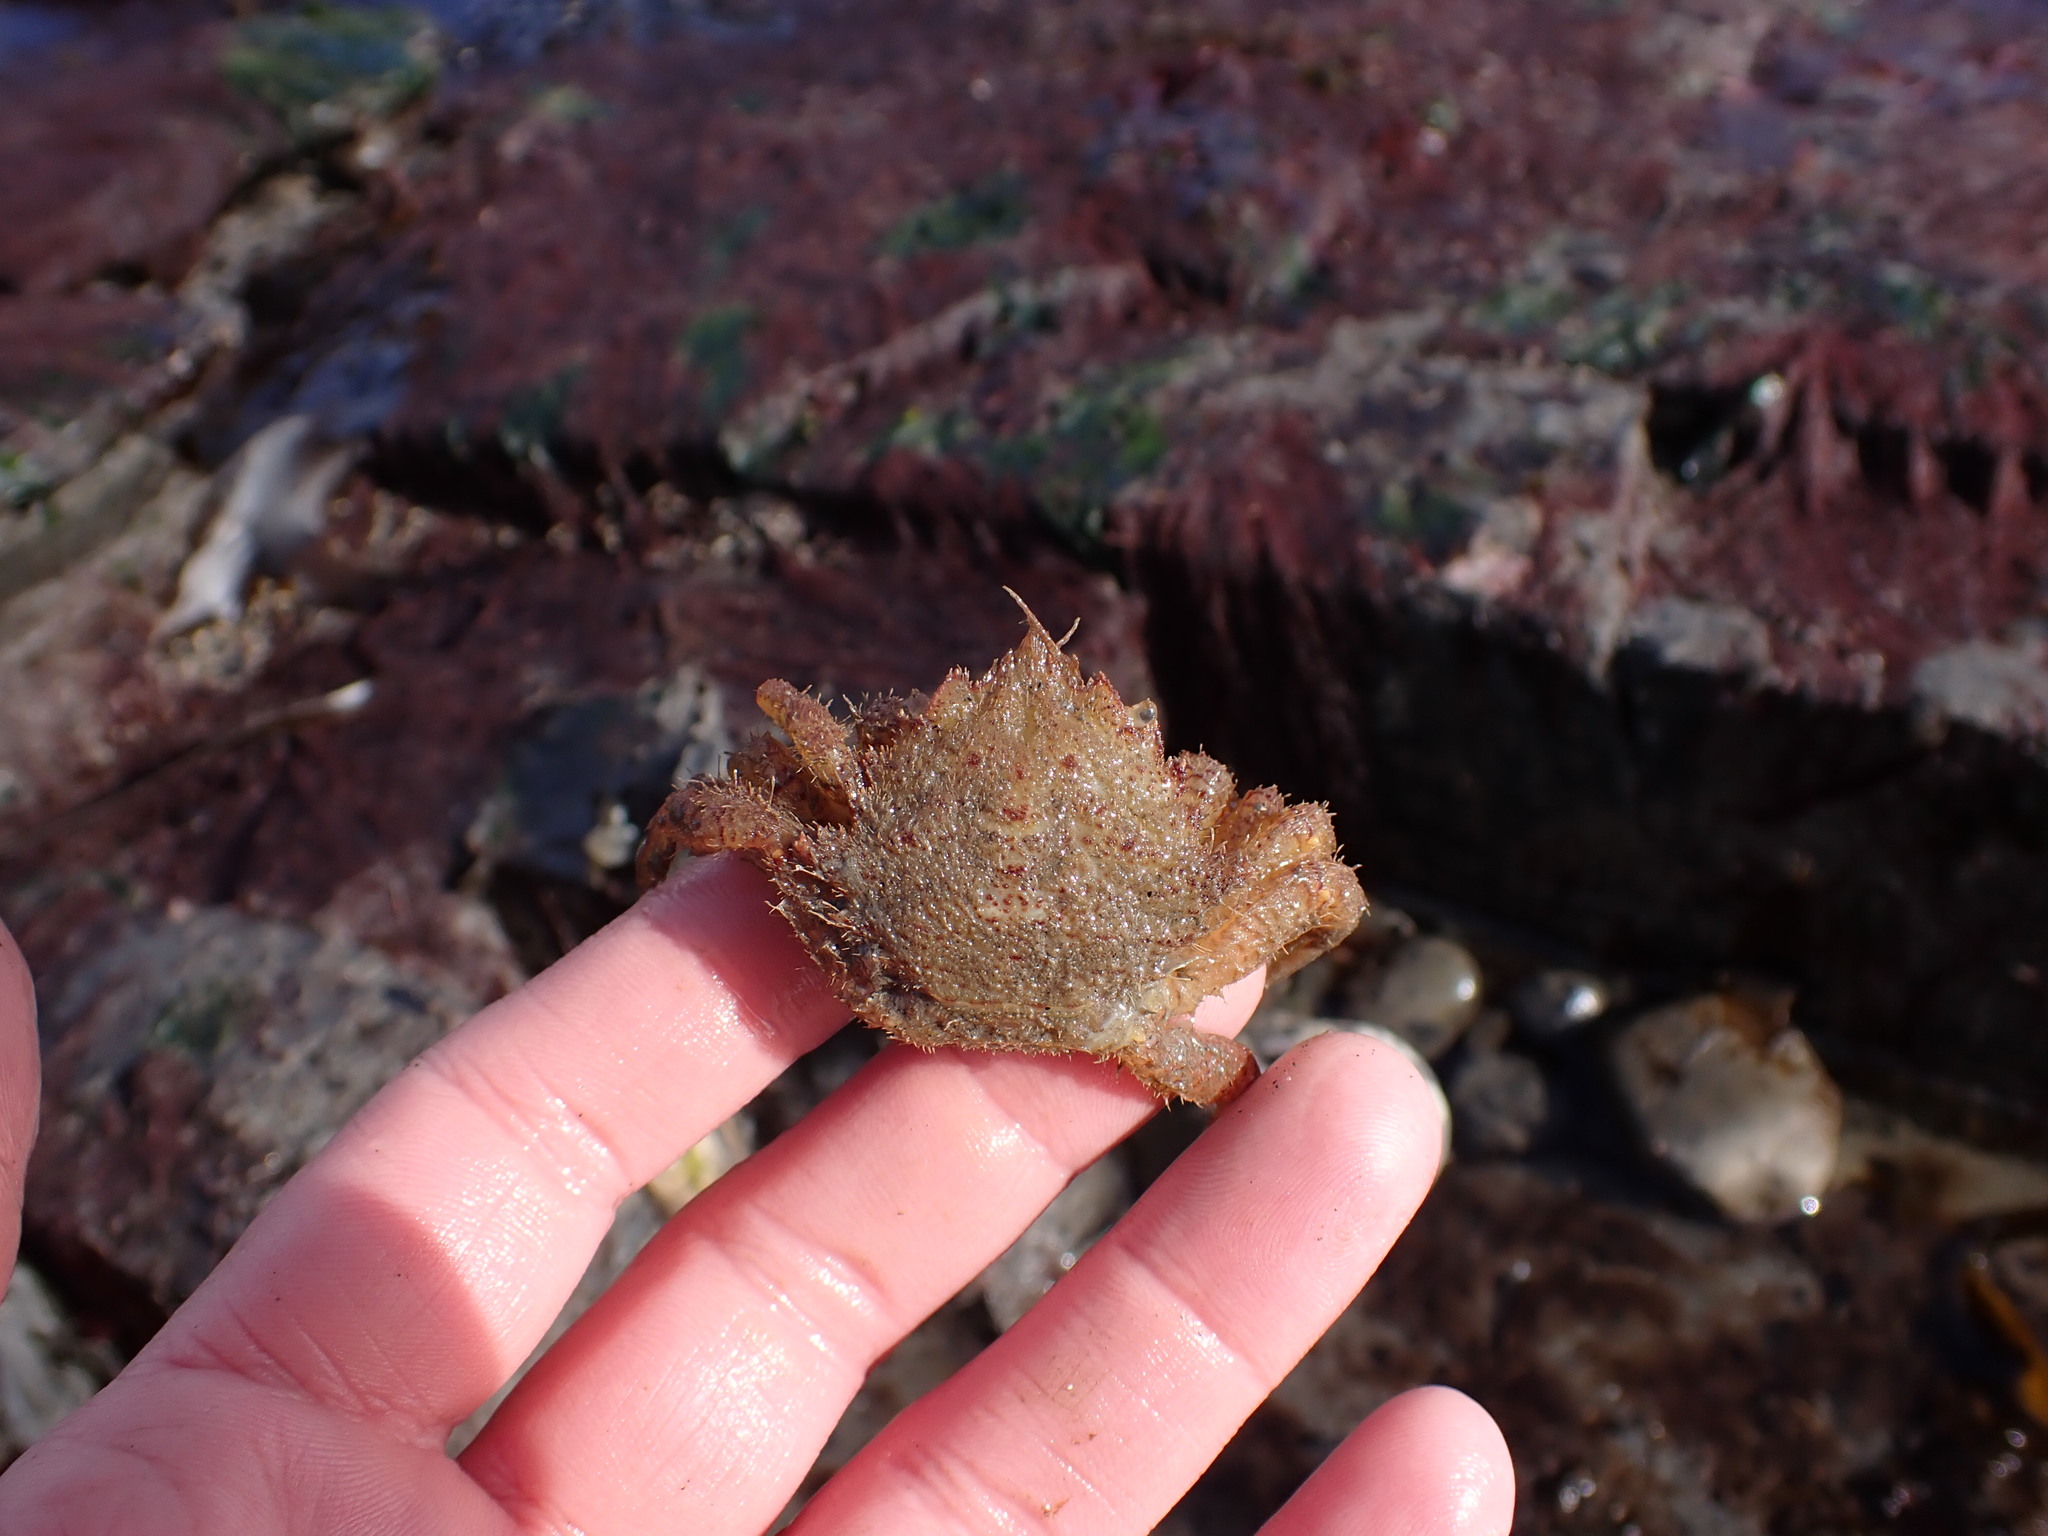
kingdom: Animalia
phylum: Arthropoda
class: Malacostraca
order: Decapoda
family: Cheiragonidae
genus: Telmessus
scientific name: Telmessus cheiragonus
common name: Helmet crab
